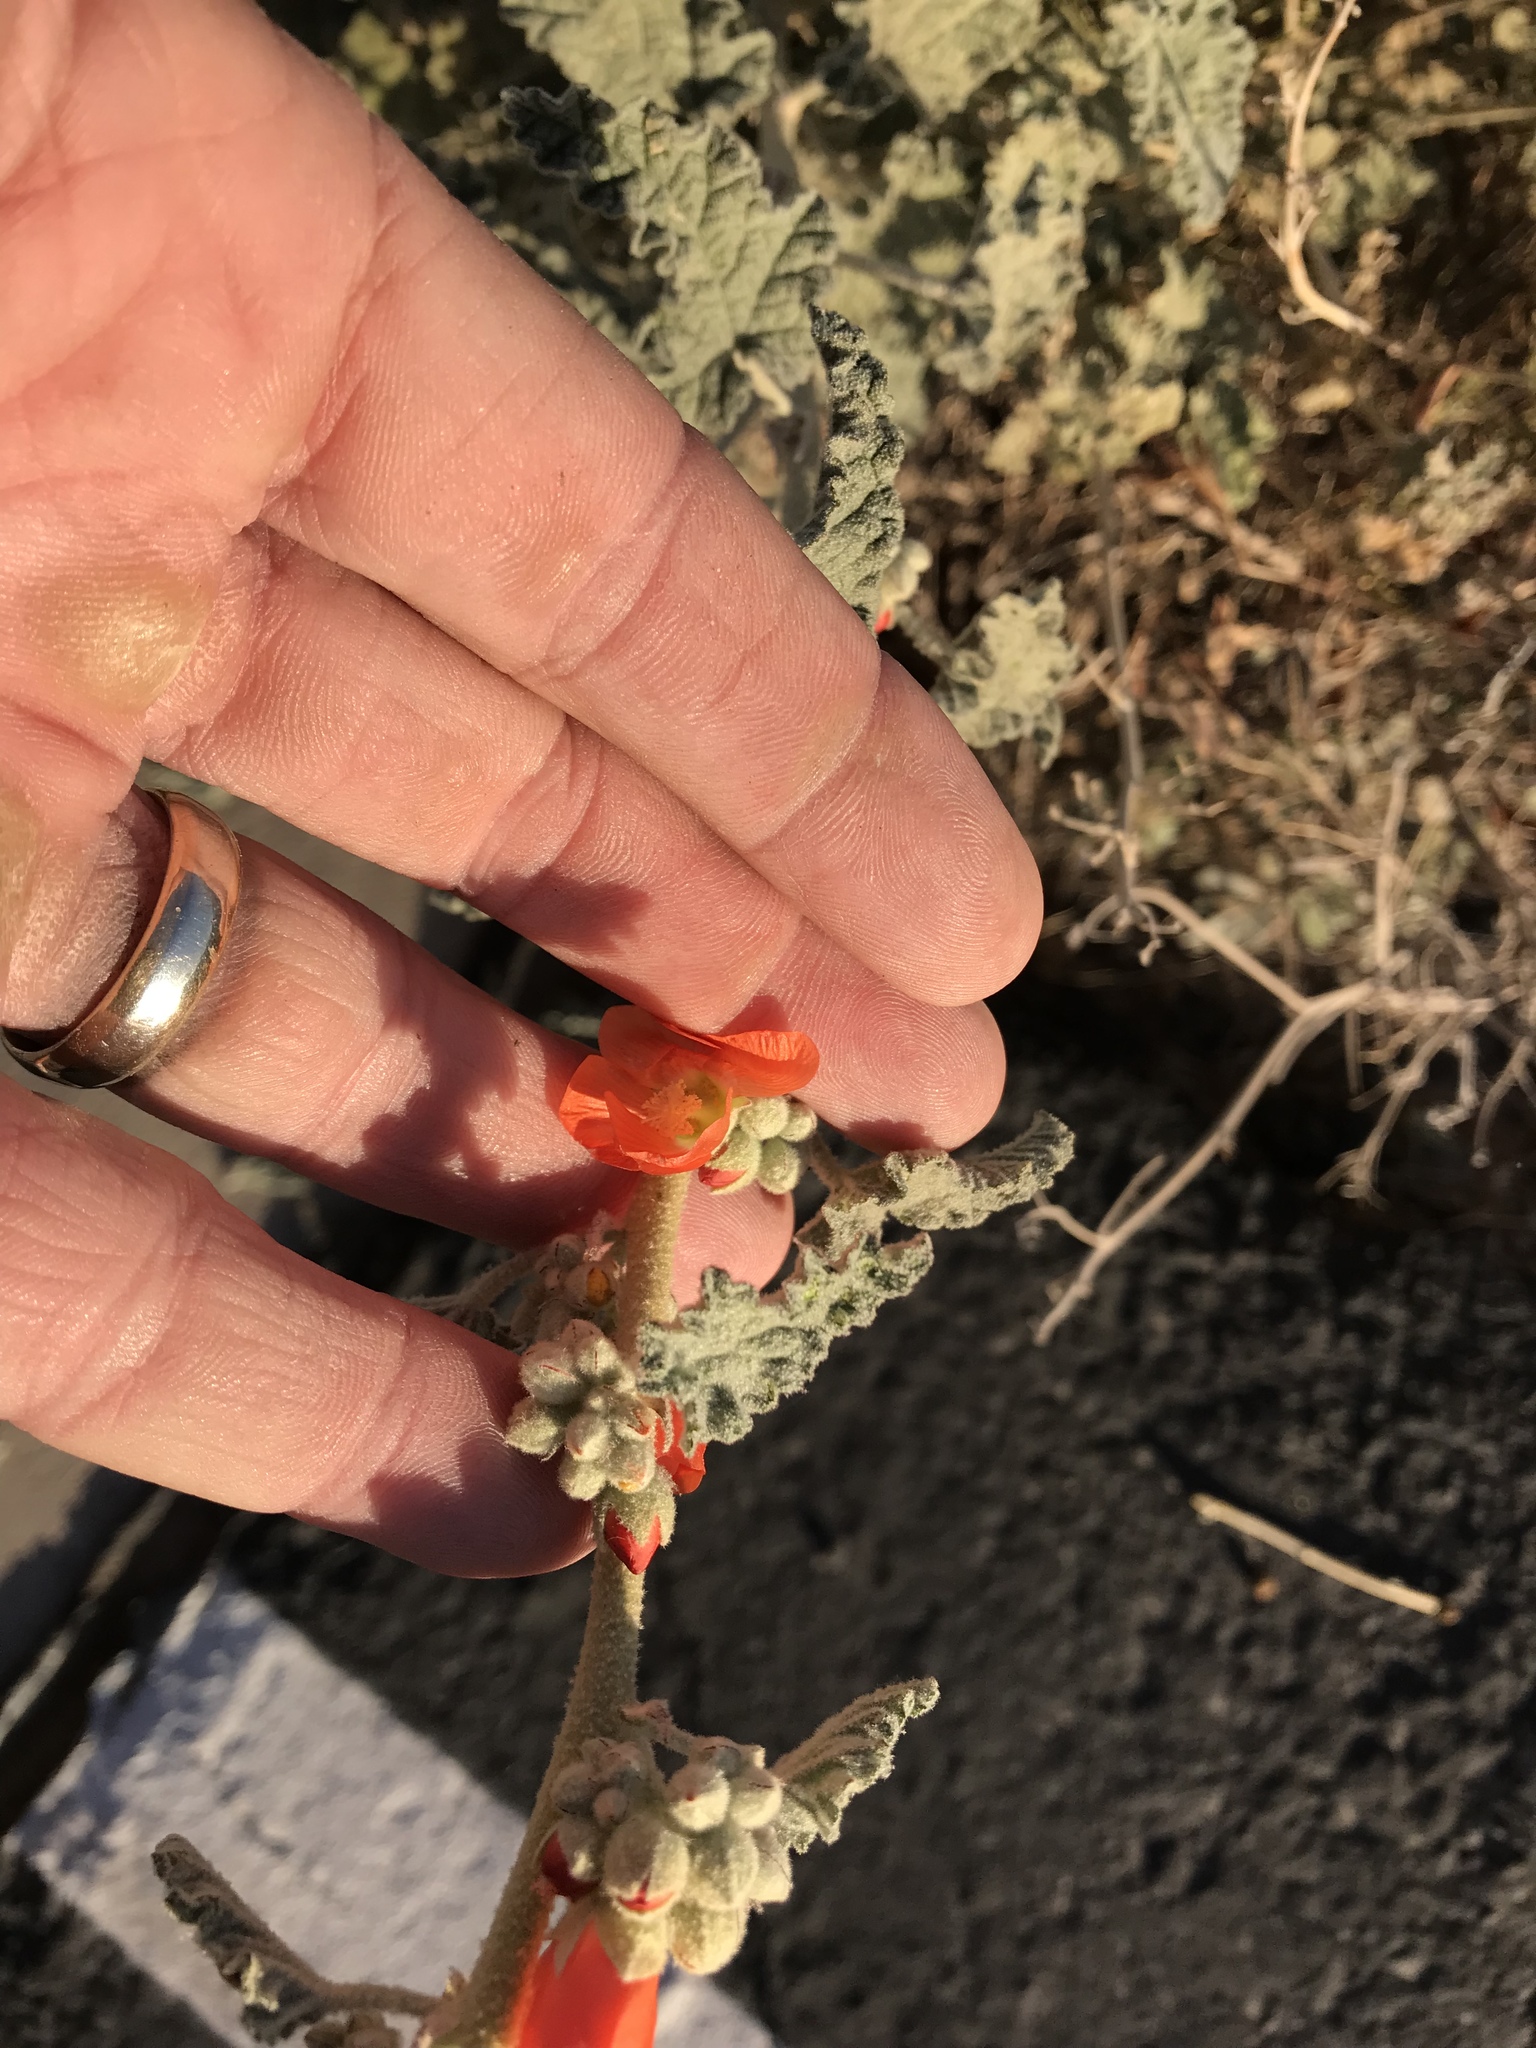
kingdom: Plantae
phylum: Tracheophyta
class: Magnoliopsida
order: Malvales
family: Malvaceae
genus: Sphaeralcea
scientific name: Sphaeralcea ambigua
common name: Apricot globe-mallow
